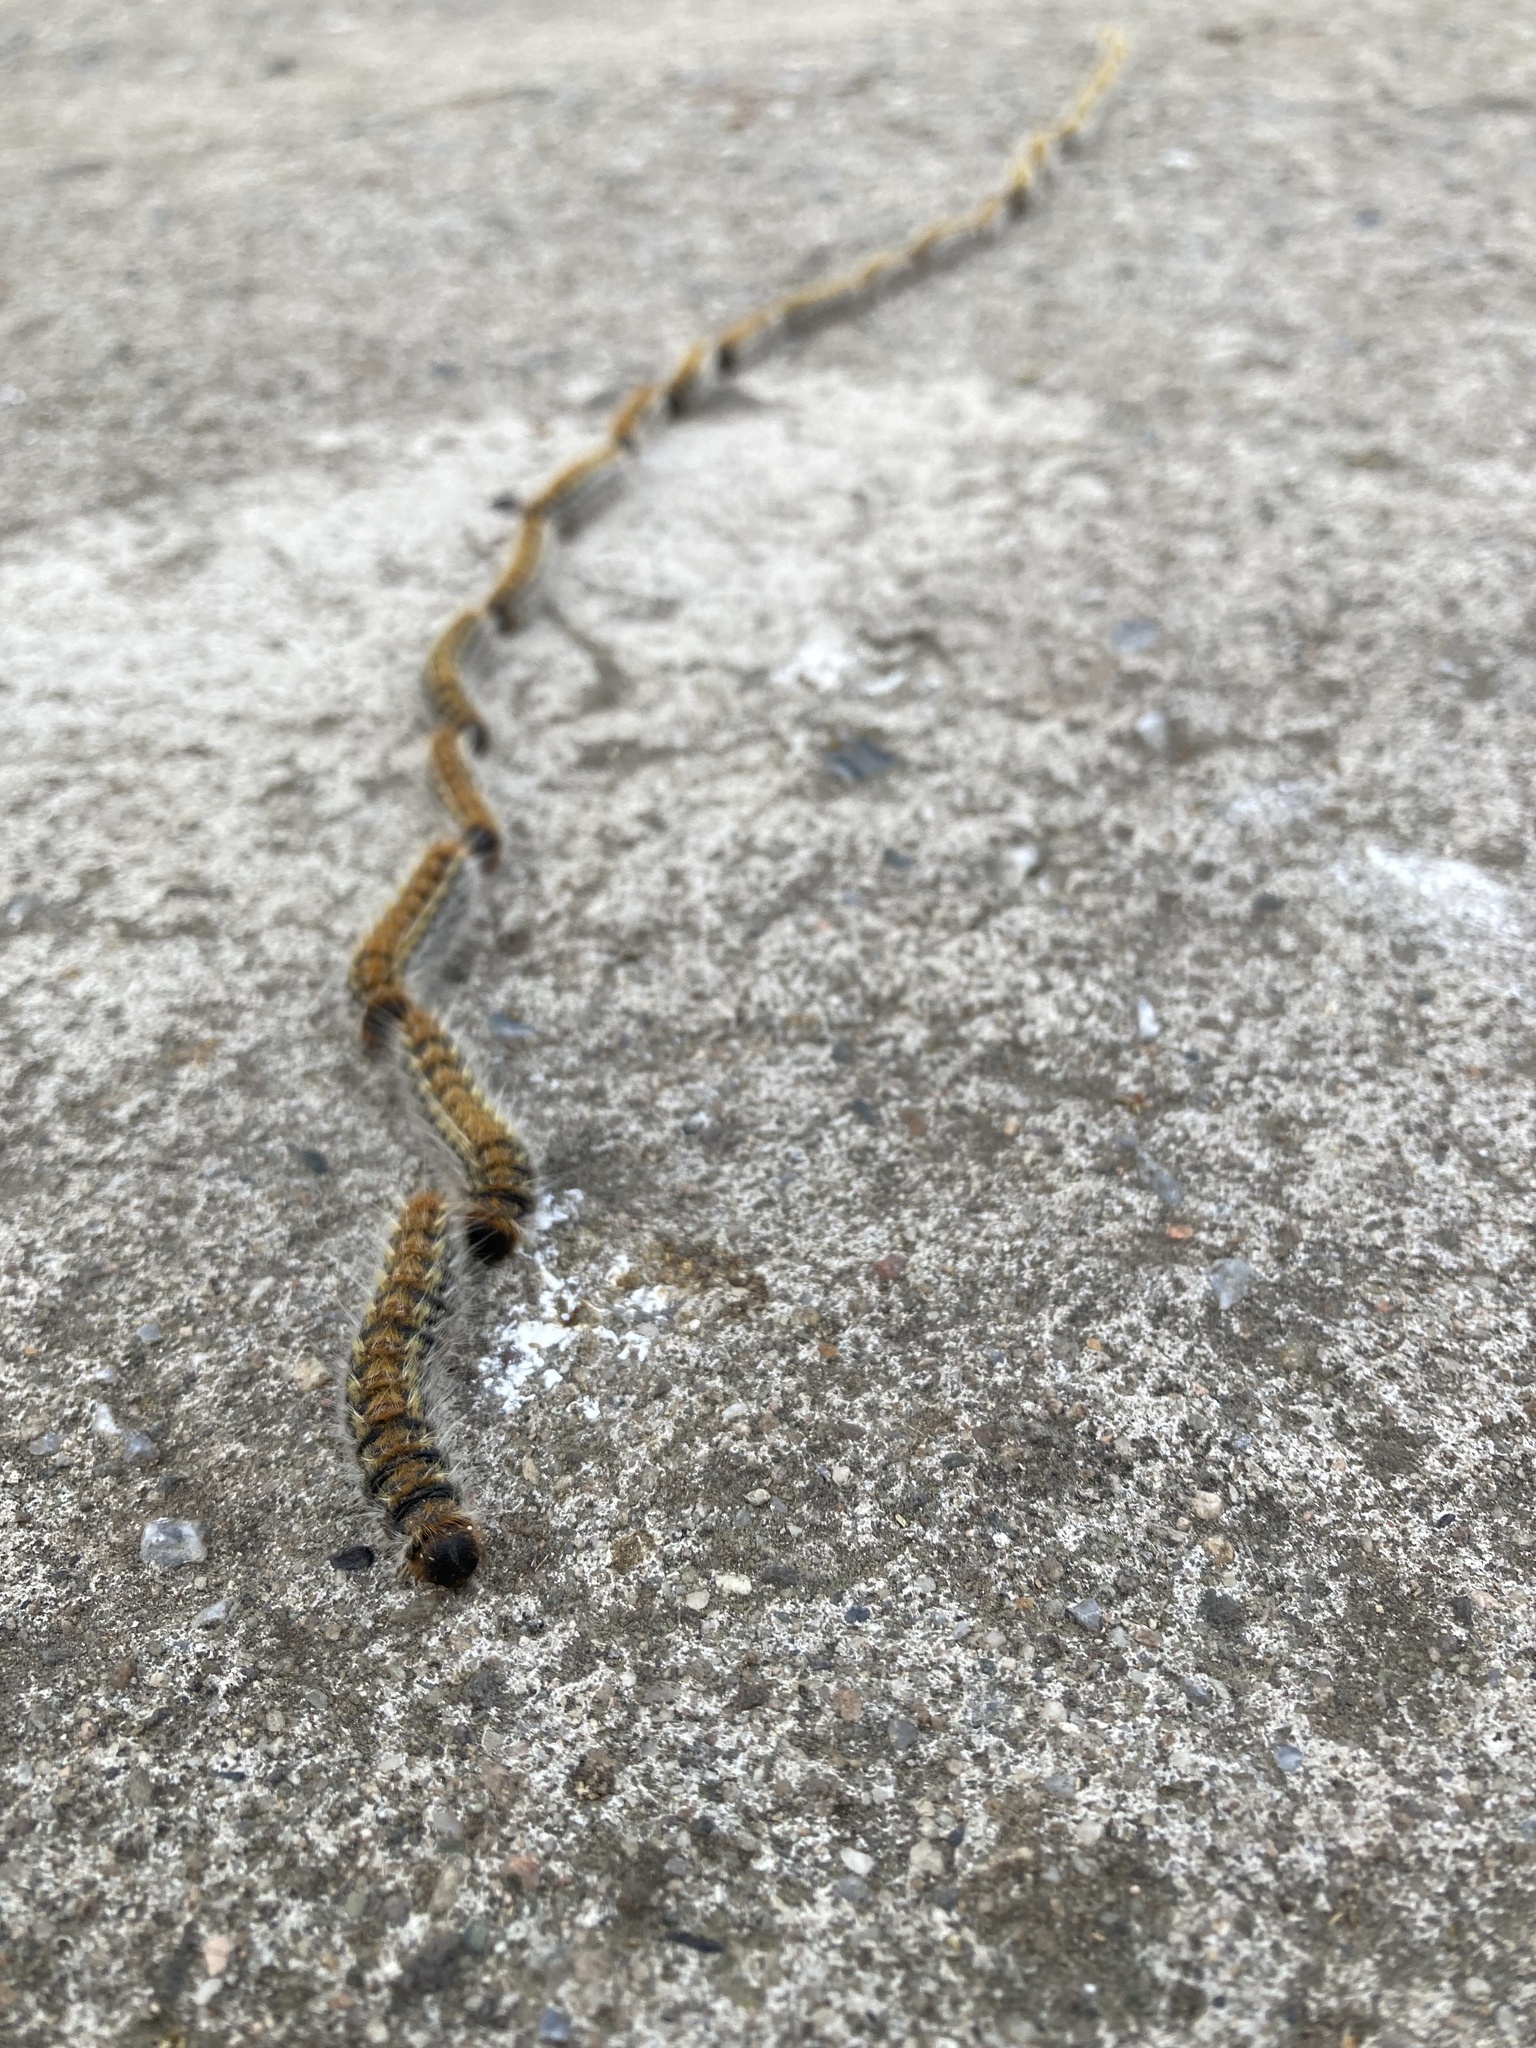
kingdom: Animalia
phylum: Arthropoda
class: Insecta
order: Lepidoptera
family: Notodontidae
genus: Thaumetopoea
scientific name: Thaumetopoea pityocampa
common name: Pine processionary
